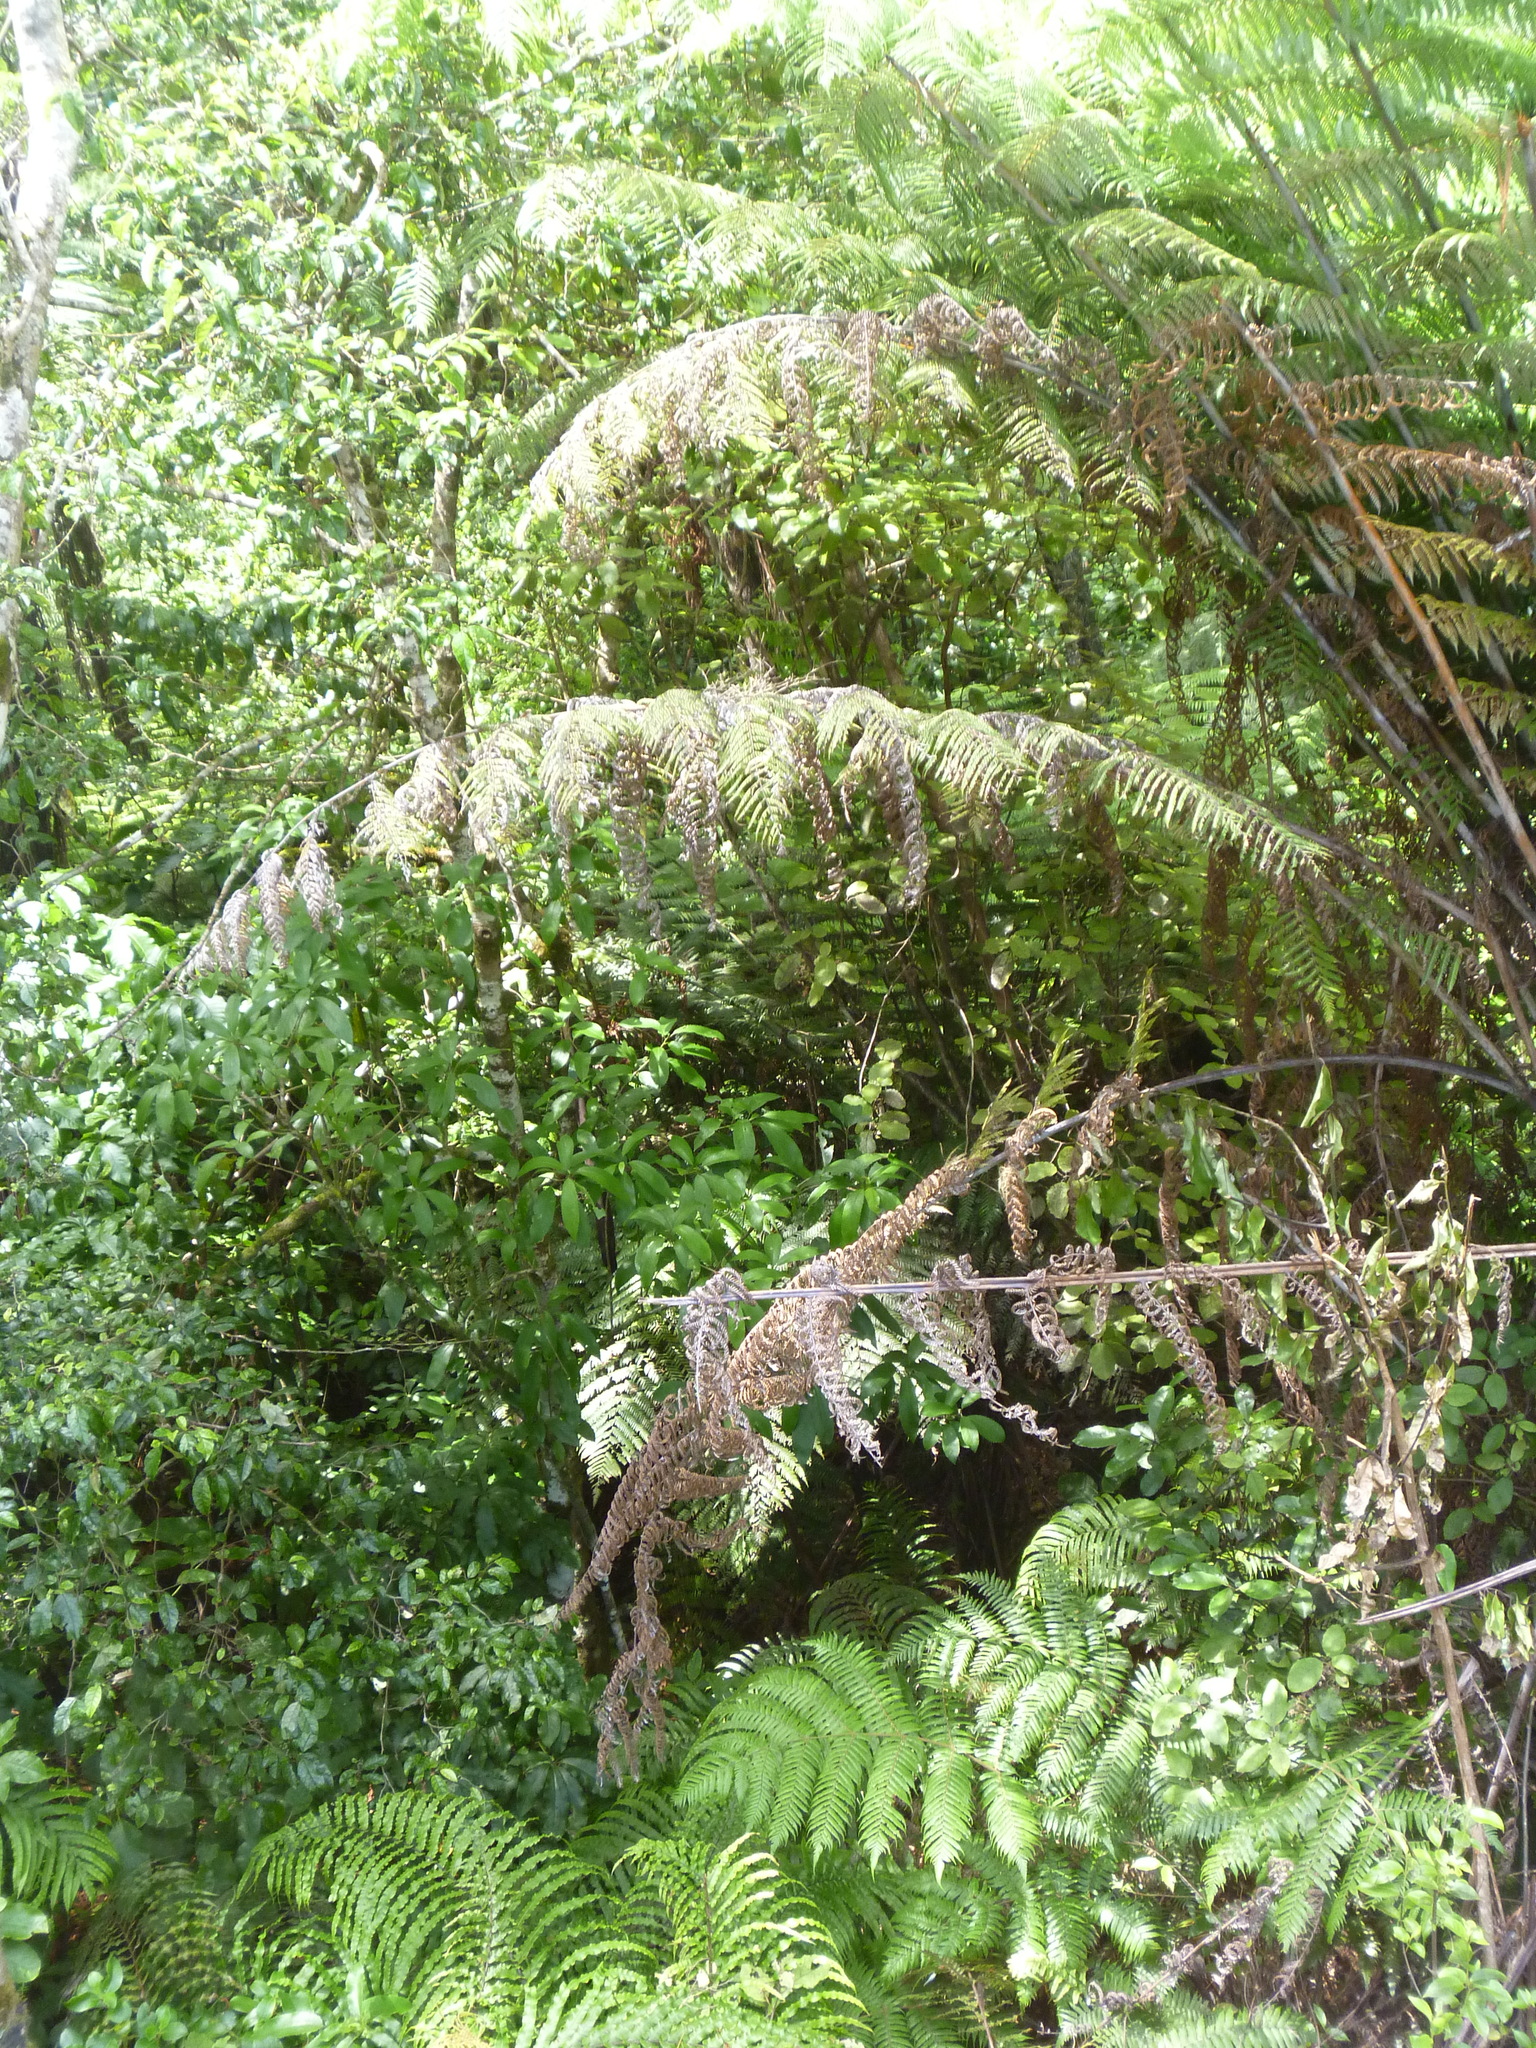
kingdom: Plantae
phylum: Tracheophyta
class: Magnoliopsida
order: Asterales
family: Rousseaceae
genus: Carpodetus
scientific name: Carpodetus serratus
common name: White mapau
